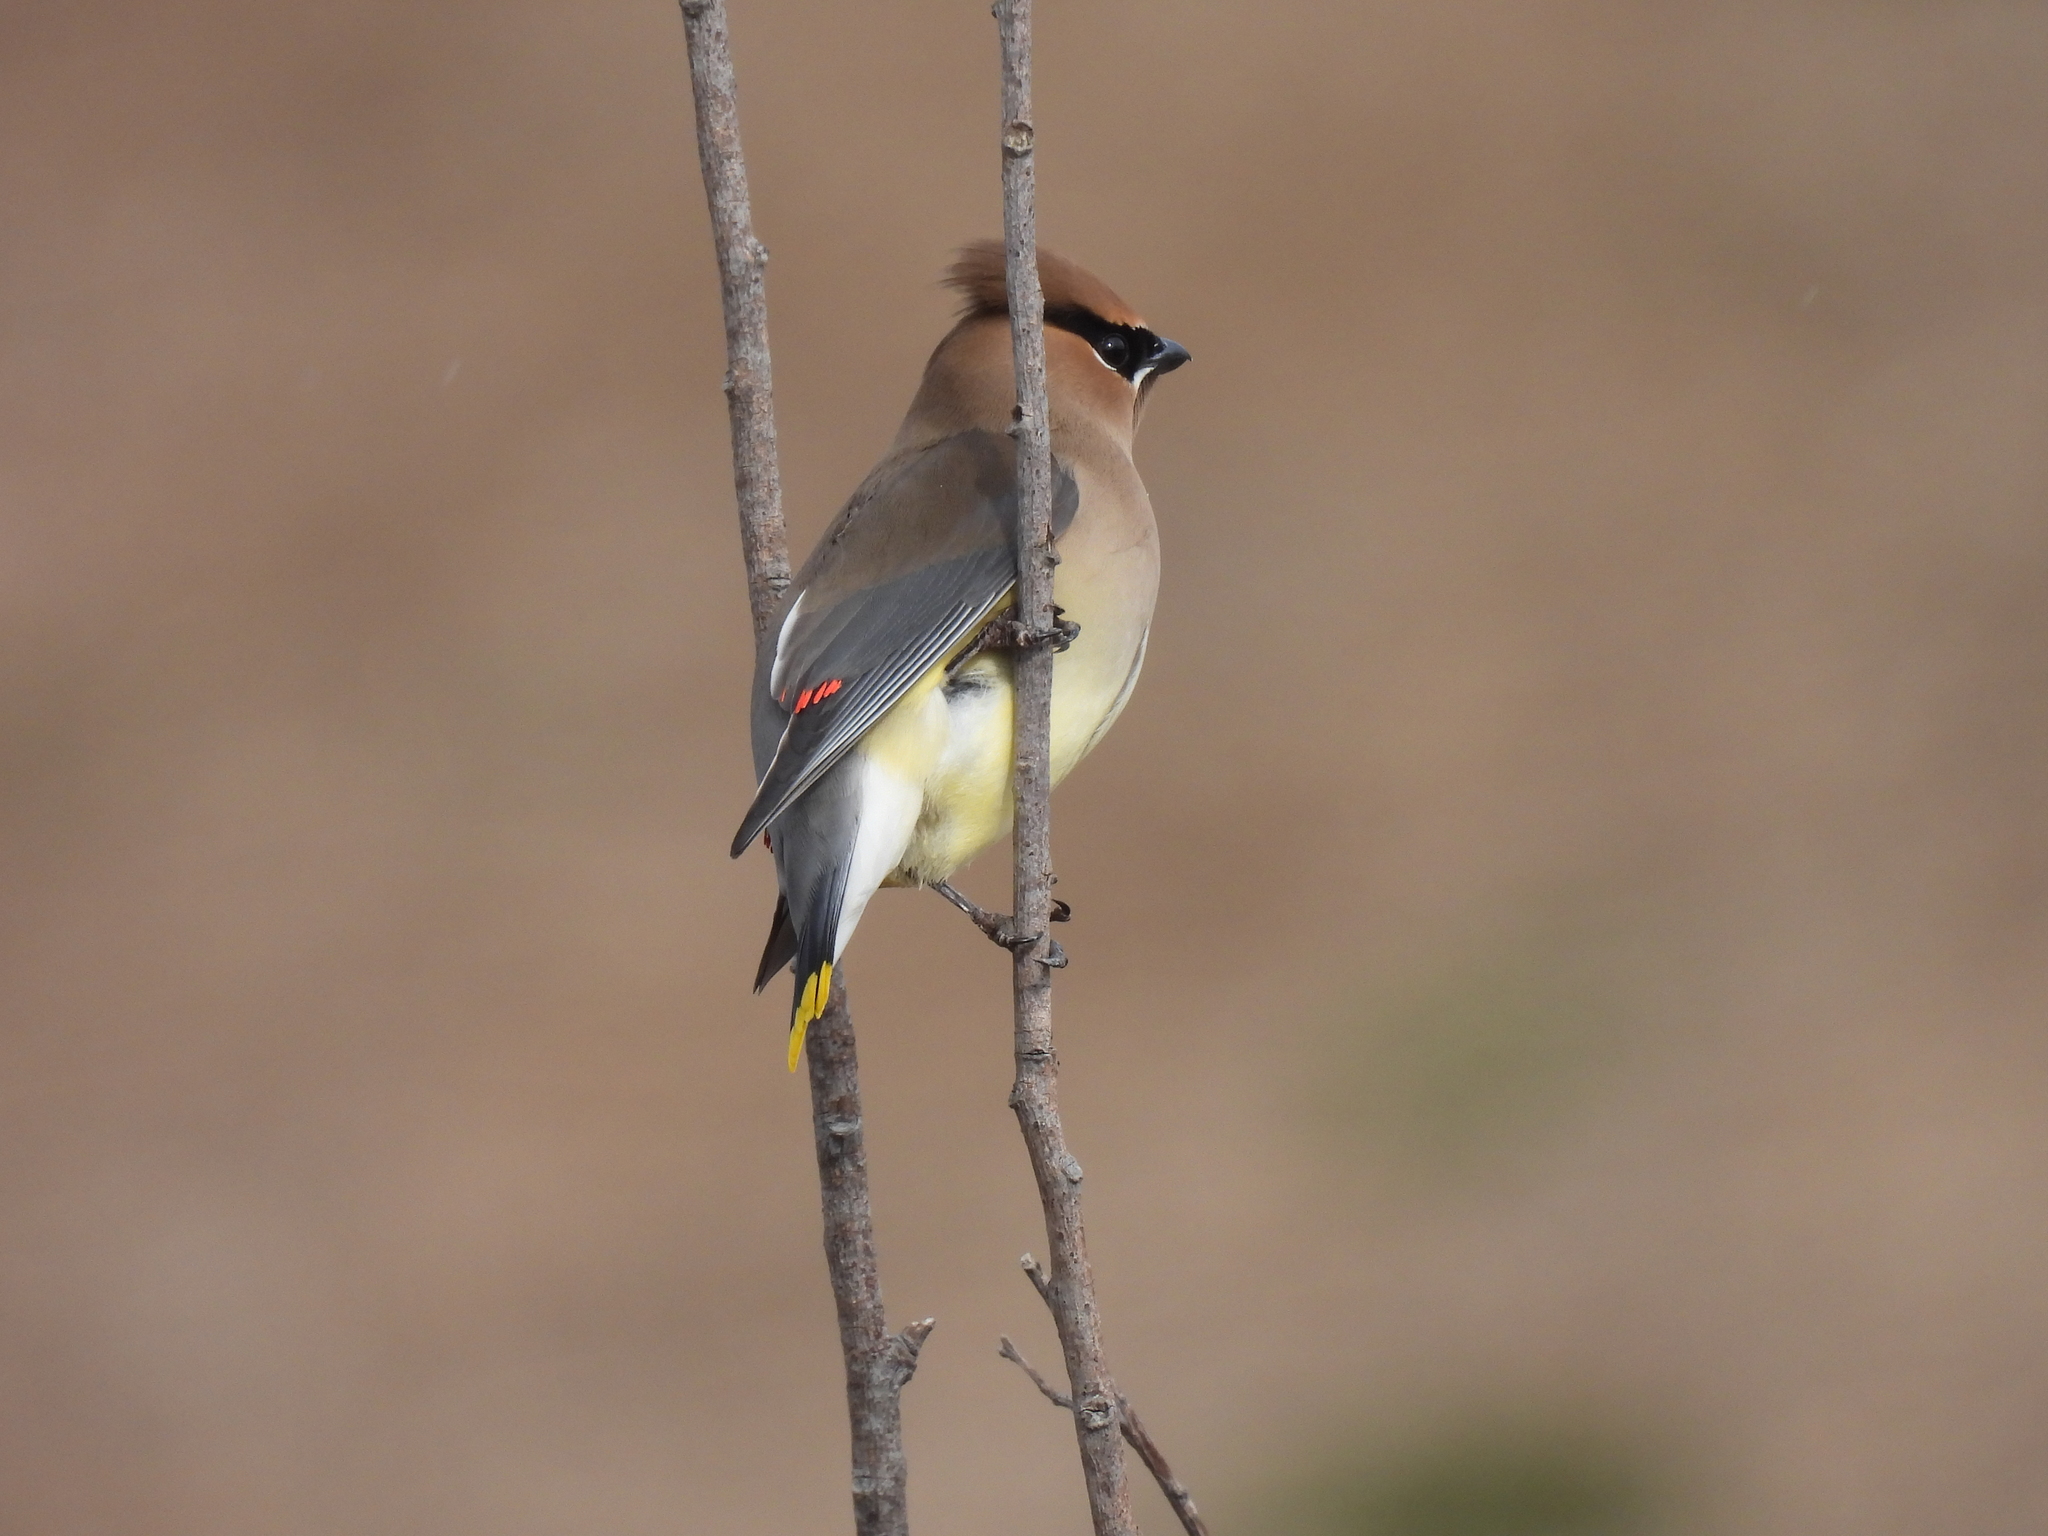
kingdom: Animalia
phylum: Chordata
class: Aves
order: Passeriformes
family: Bombycillidae
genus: Bombycilla
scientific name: Bombycilla cedrorum
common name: Cedar waxwing
